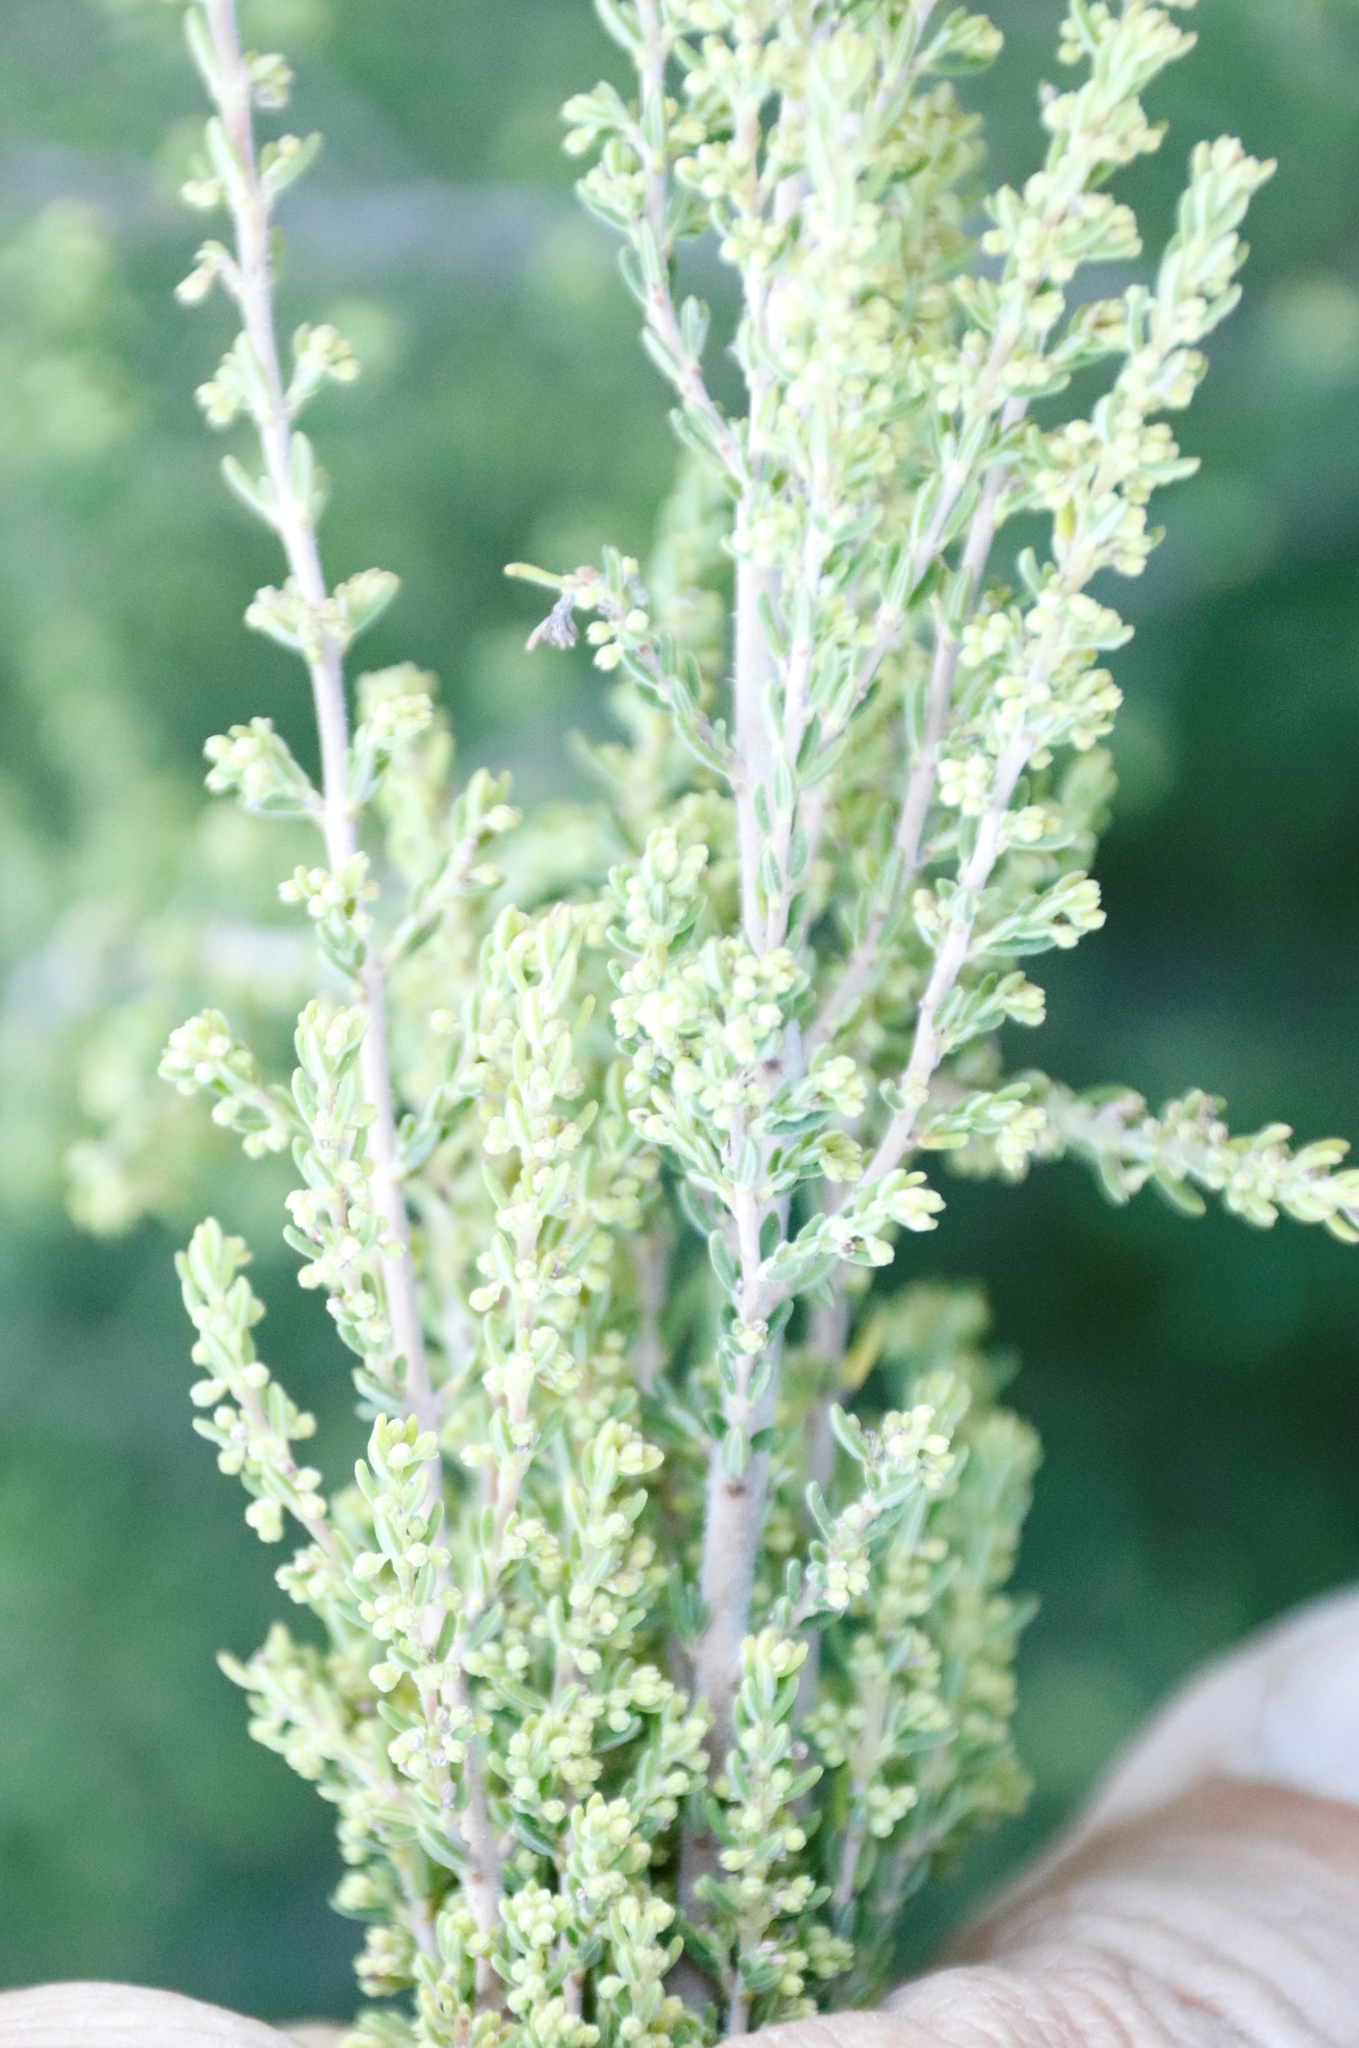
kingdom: Plantae
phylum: Tracheophyta
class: Magnoliopsida
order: Ericales
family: Ericaceae
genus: Erica
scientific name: Erica maesta
